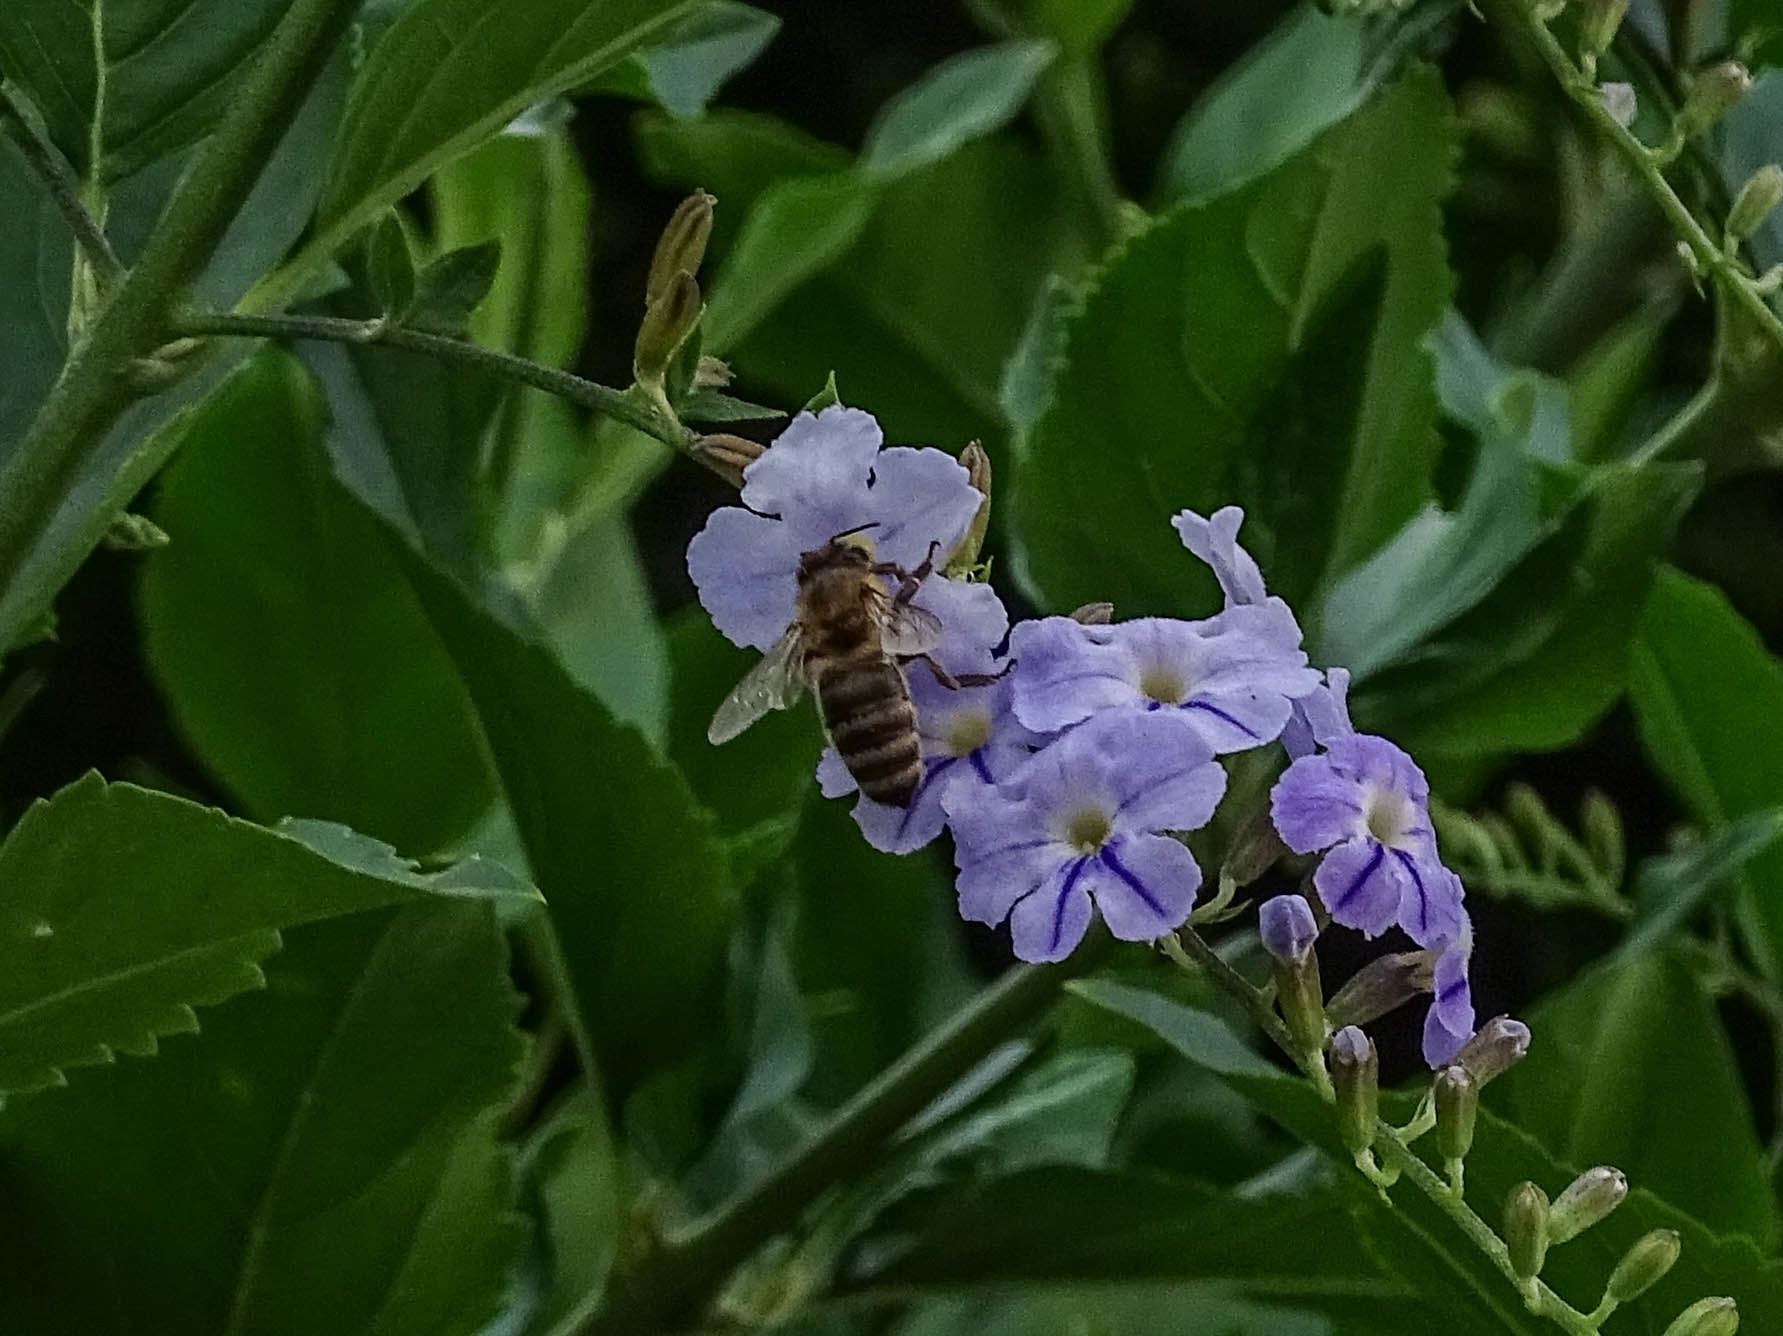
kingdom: Animalia
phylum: Arthropoda
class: Insecta
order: Hymenoptera
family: Apidae
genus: Apis
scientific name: Apis mellifera
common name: Honey bee
